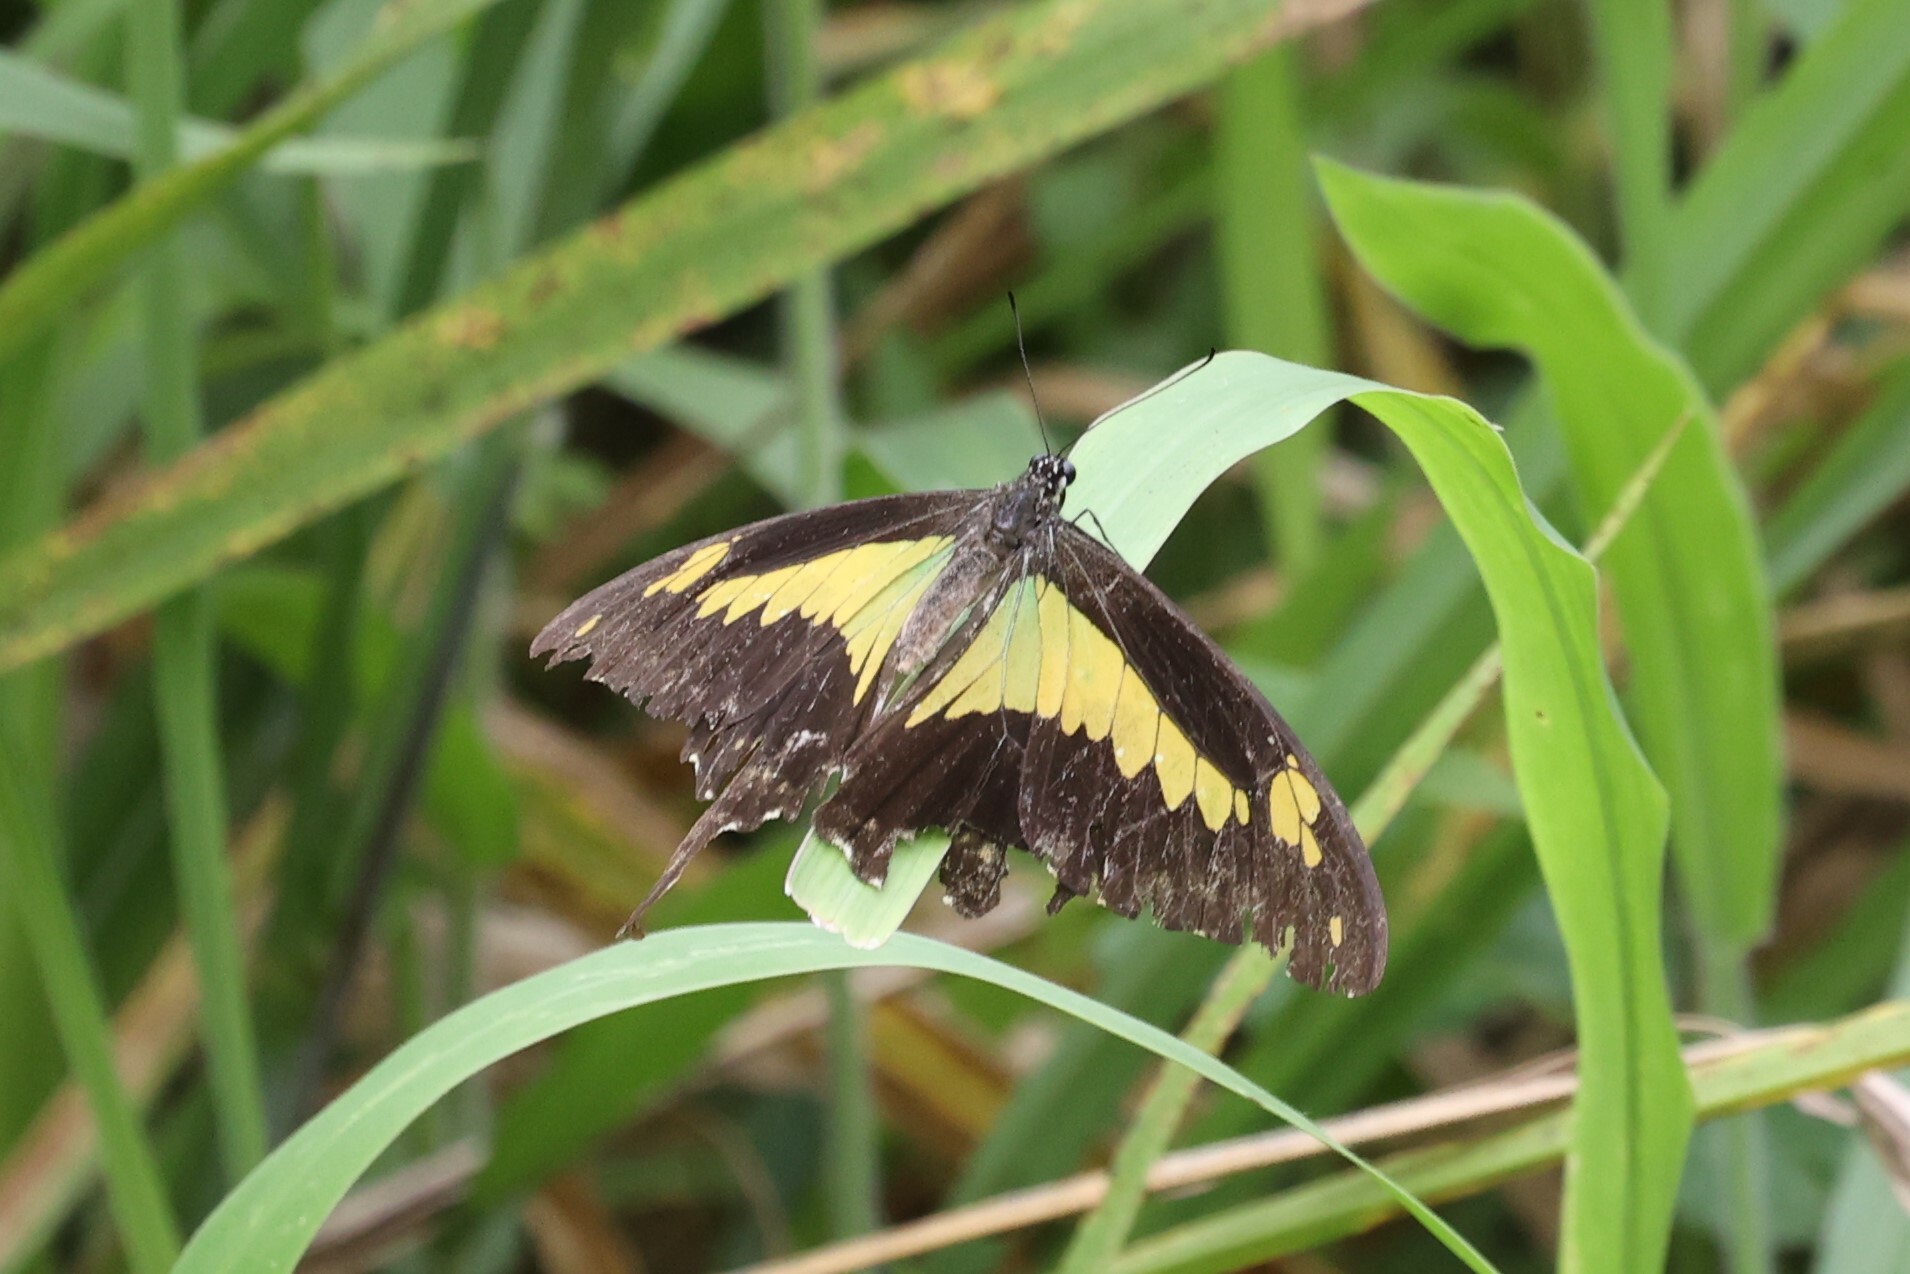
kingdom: Animalia
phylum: Arthropoda
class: Insecta
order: Lepidoptera
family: Papilionidae
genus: Papilio
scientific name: Papilio phorcas
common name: Apple-green swallowtail
